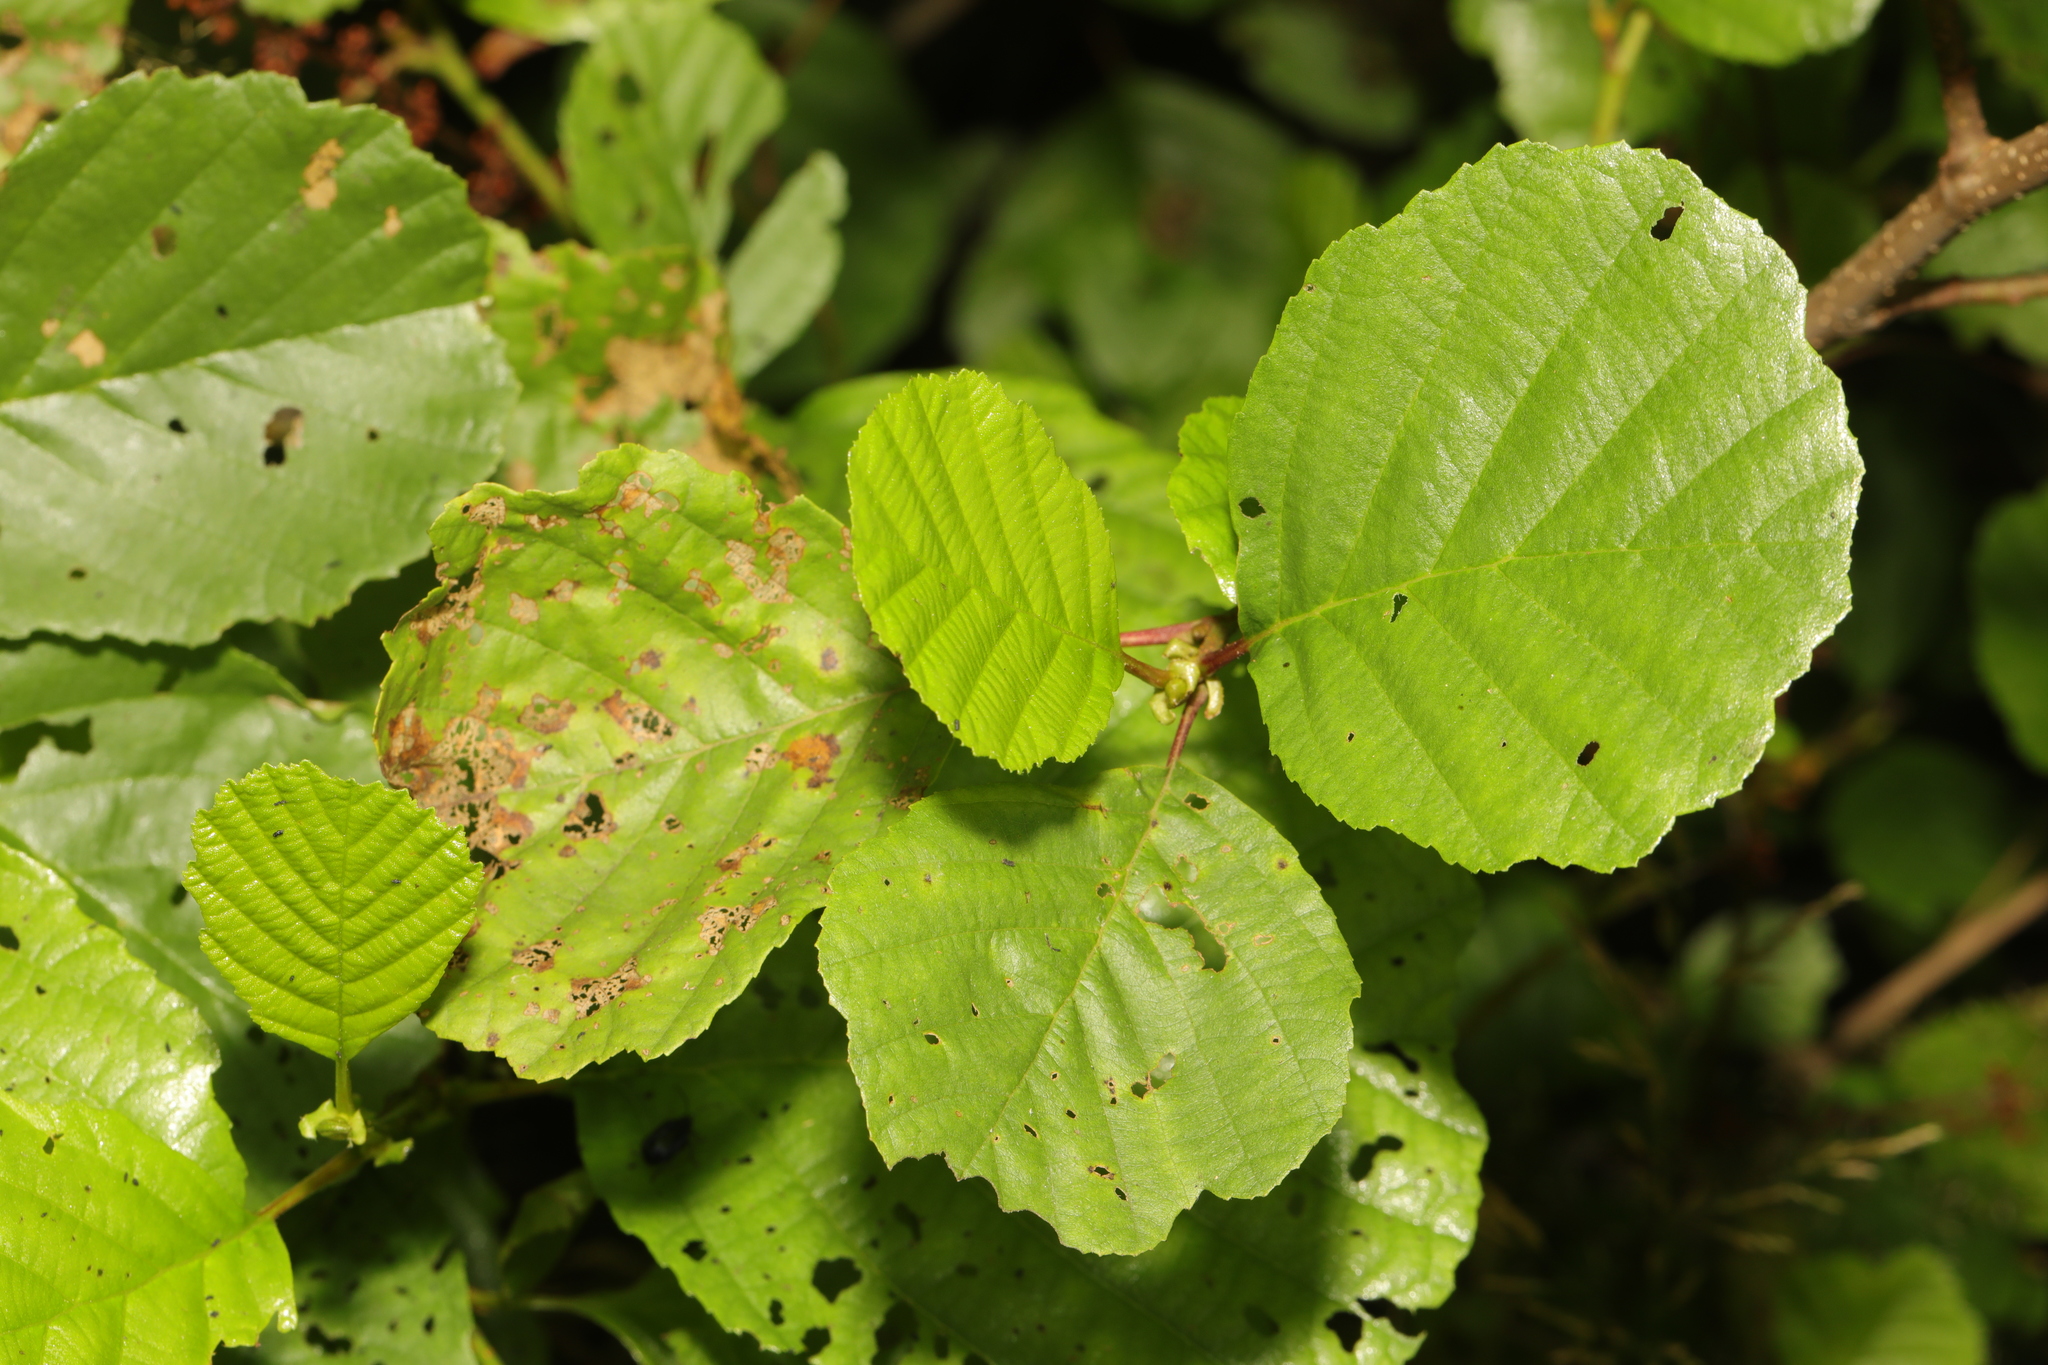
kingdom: Plantae
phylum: Tracheophyta
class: Magnoliopsida
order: Fagales
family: Betulaceae
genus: Alnus
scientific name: Alnus glutinosa
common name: Black alder
